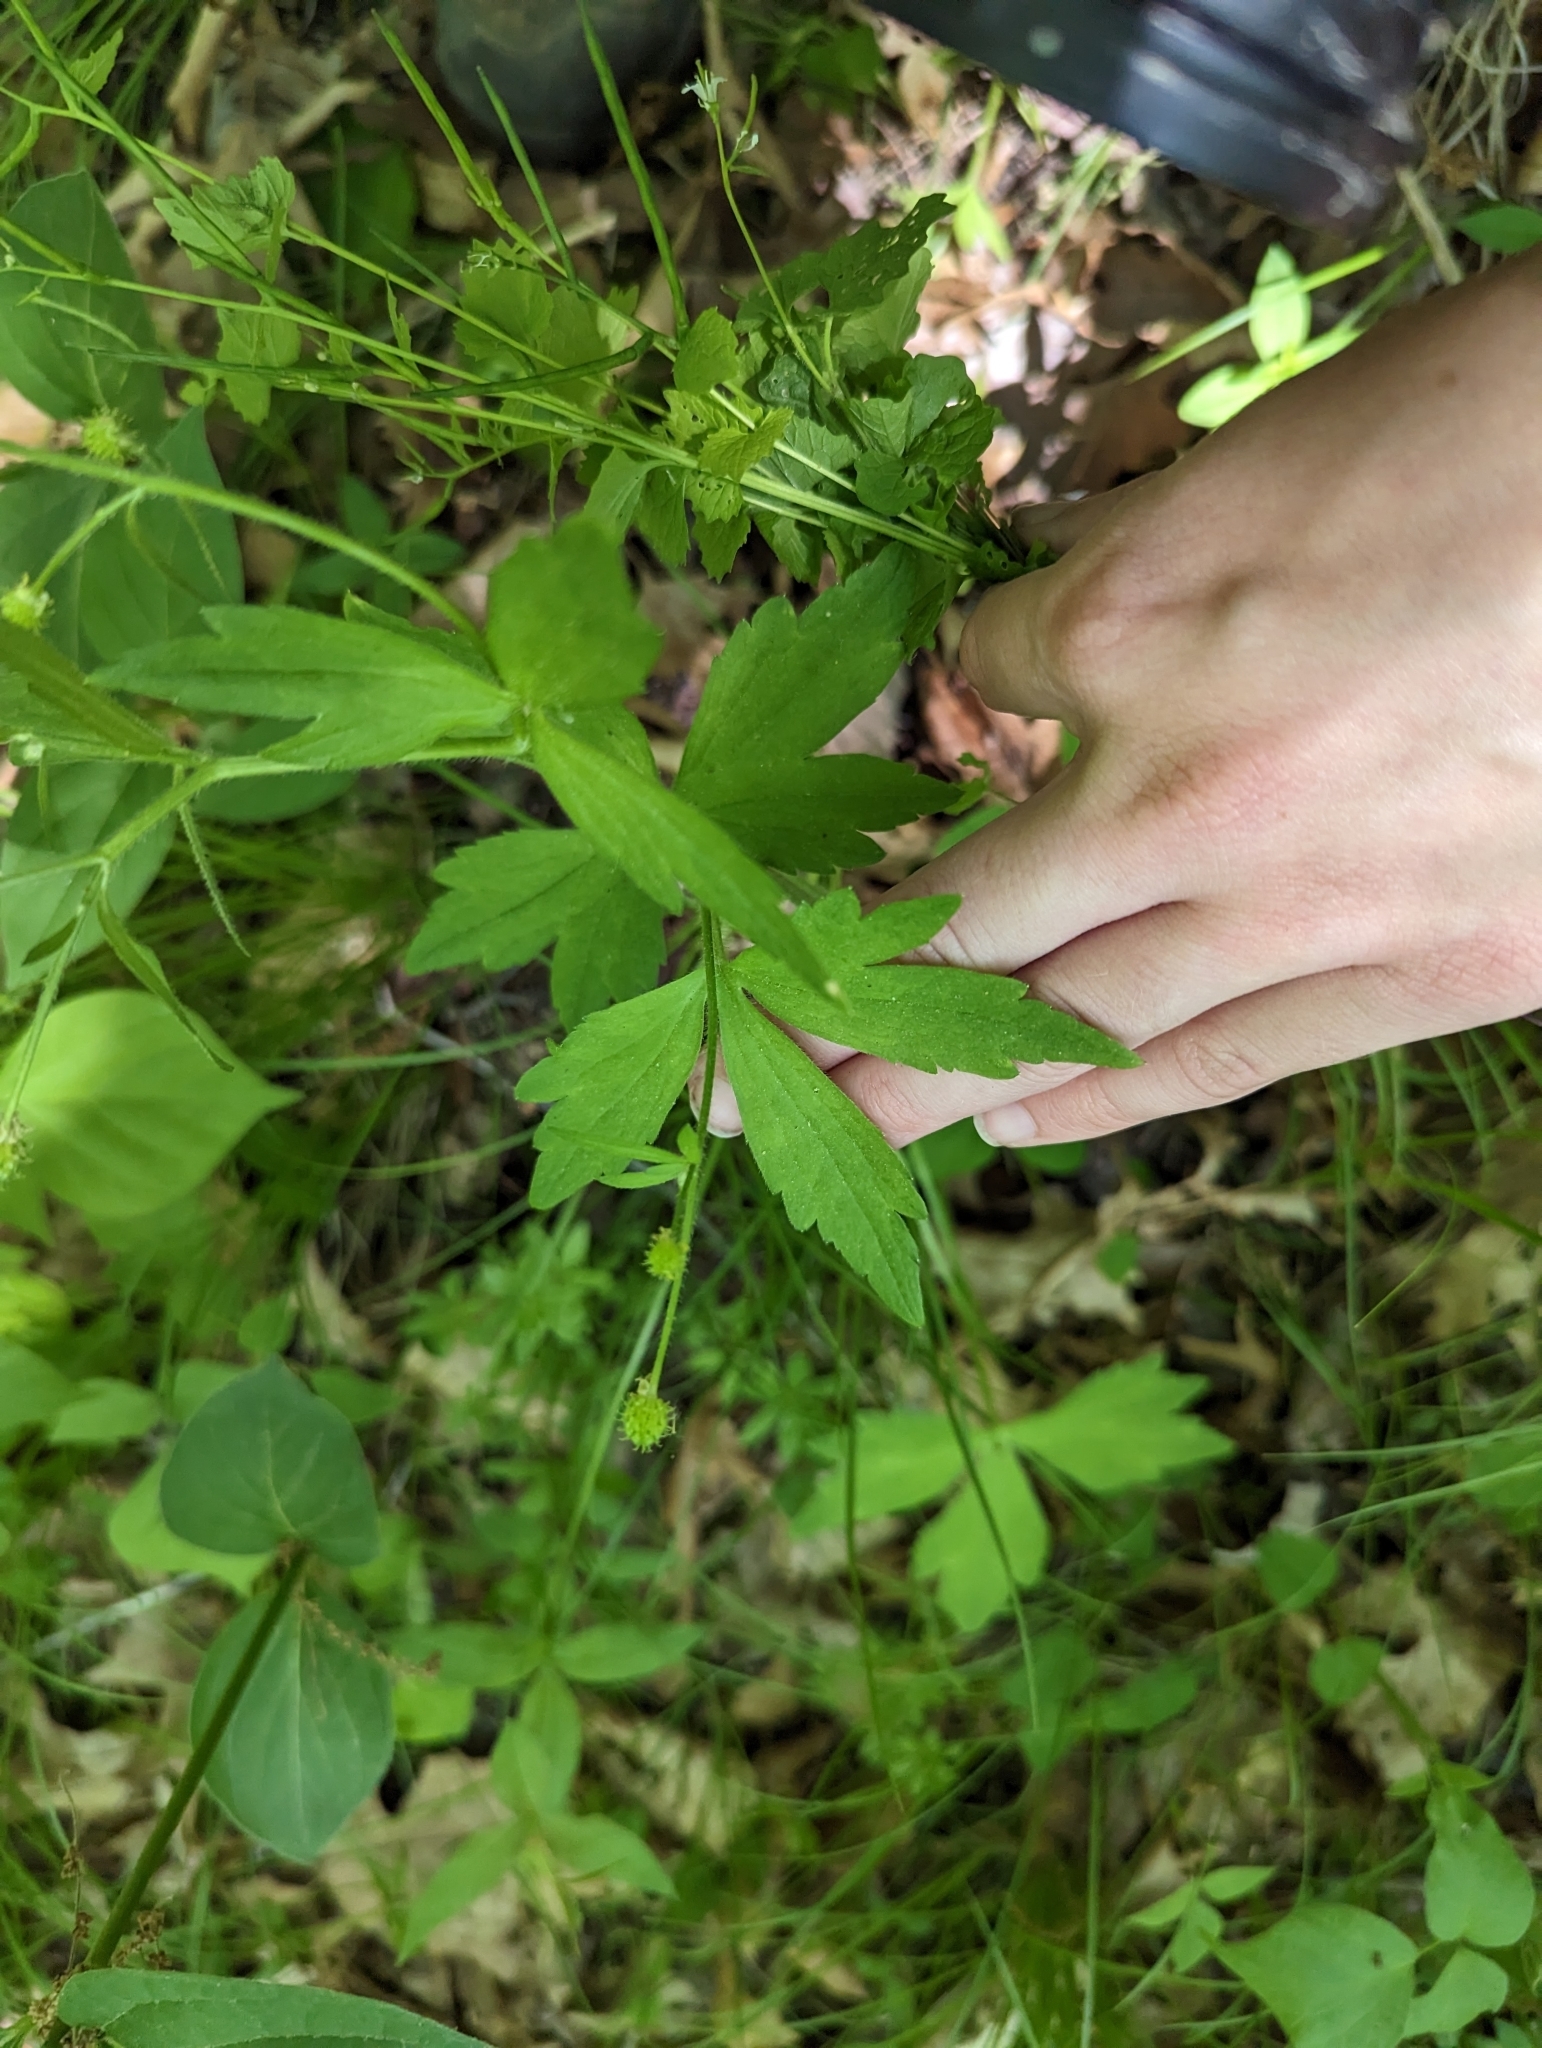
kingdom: Plantae
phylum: Tracheophyta
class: Magnoliopsida
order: Ranunculales
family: Ranunculaceae
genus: Ranunculus
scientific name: Ranunculus recurvatus
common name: Blisterwort
